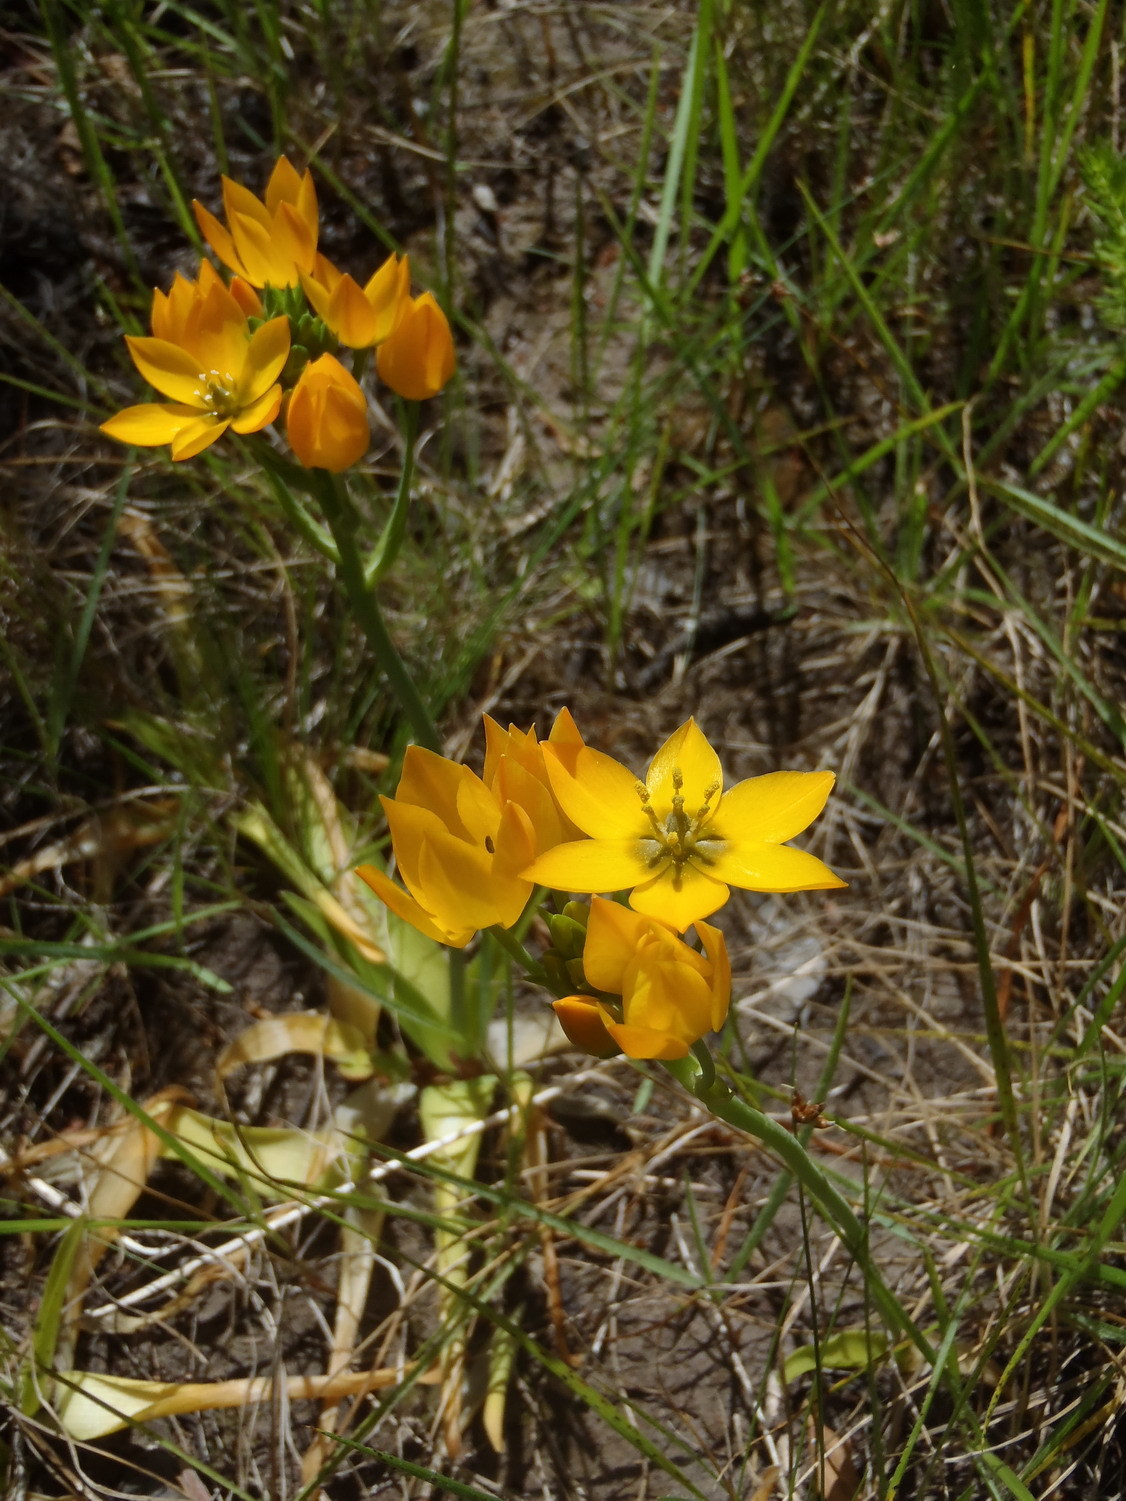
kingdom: Plantae
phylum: Tracheophyta
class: Liliopsida
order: Asparagales
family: Asparagaceae
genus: Ornithogalum
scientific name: Ornithogalum dubium
